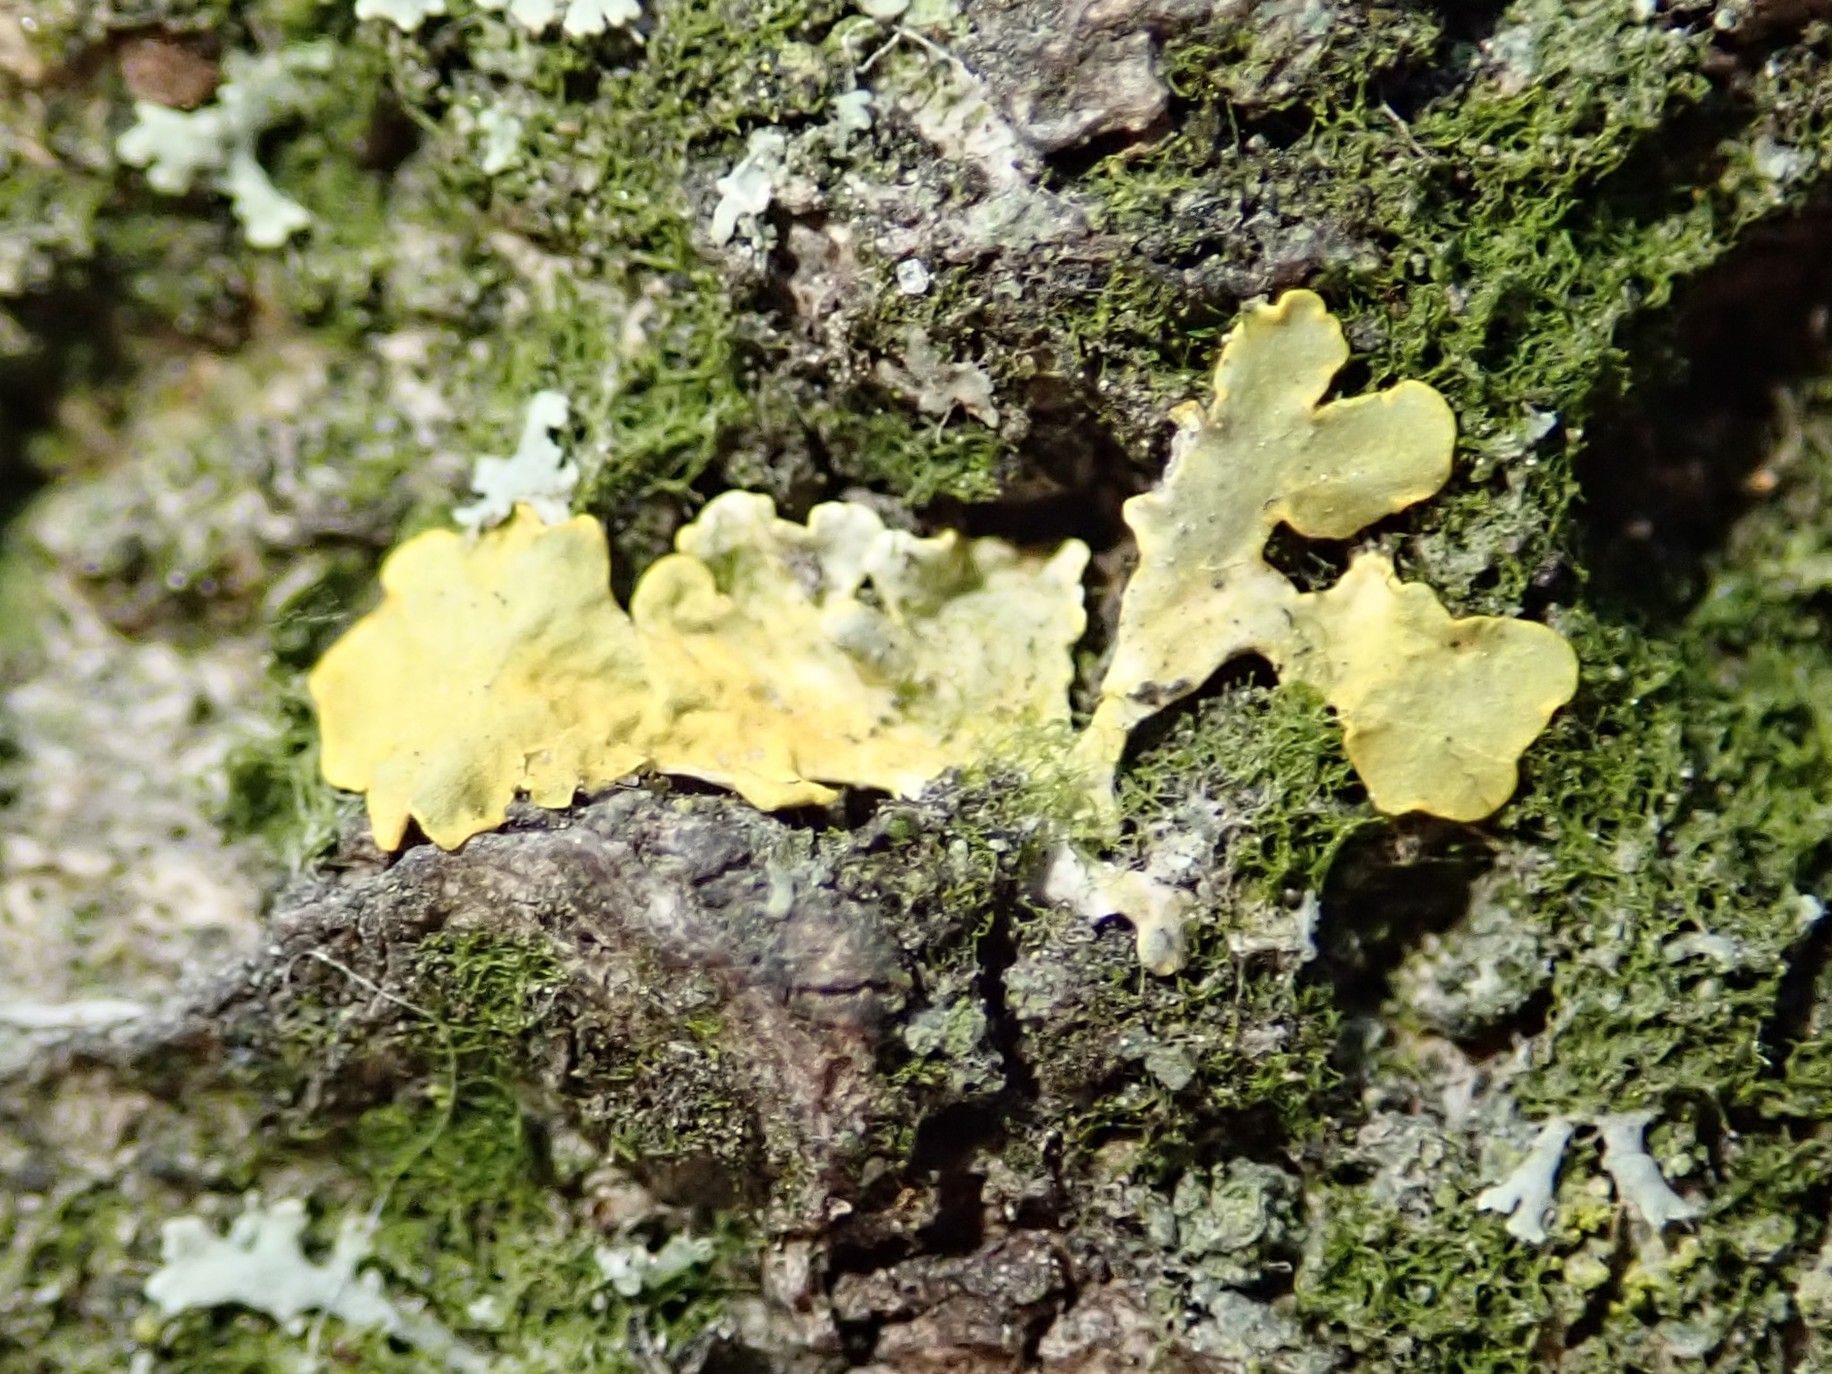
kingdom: Fungi
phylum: Ascomycota
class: Lecanoromycetes
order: Teloschistales
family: Teloschistaceae
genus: Xanthoria
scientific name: Xanthoria parietina
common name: Common orange lichen
